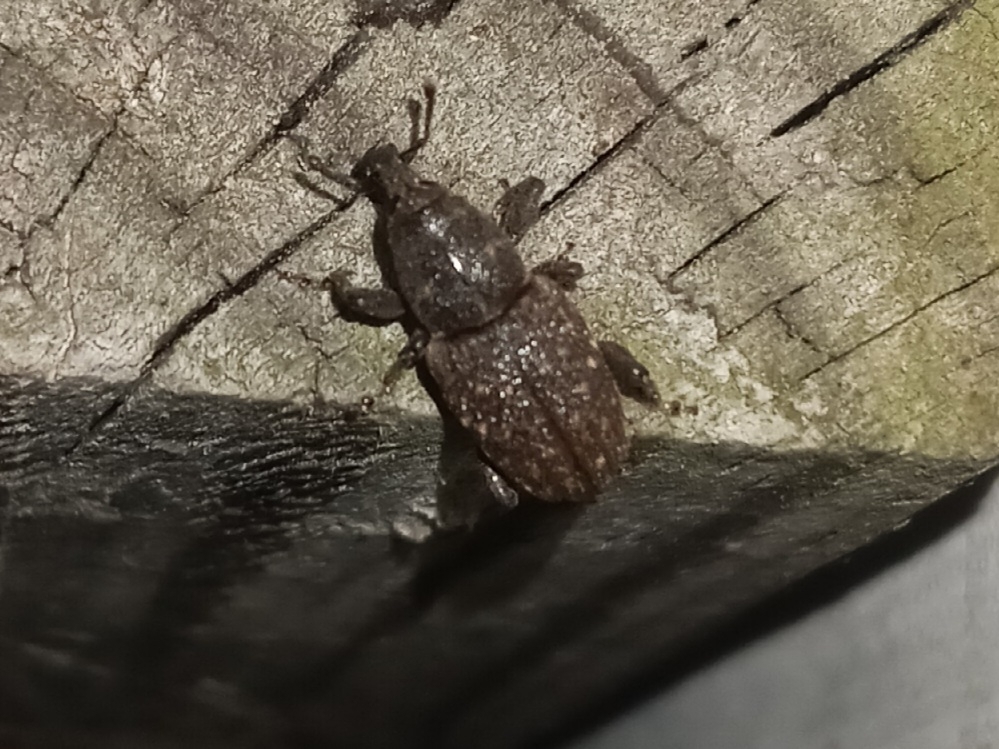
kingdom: Animalia
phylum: Arthropoda
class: Insecta
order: Coleoptera
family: Curculionidae
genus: Pachylobius
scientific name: Pachylobius picivorus
